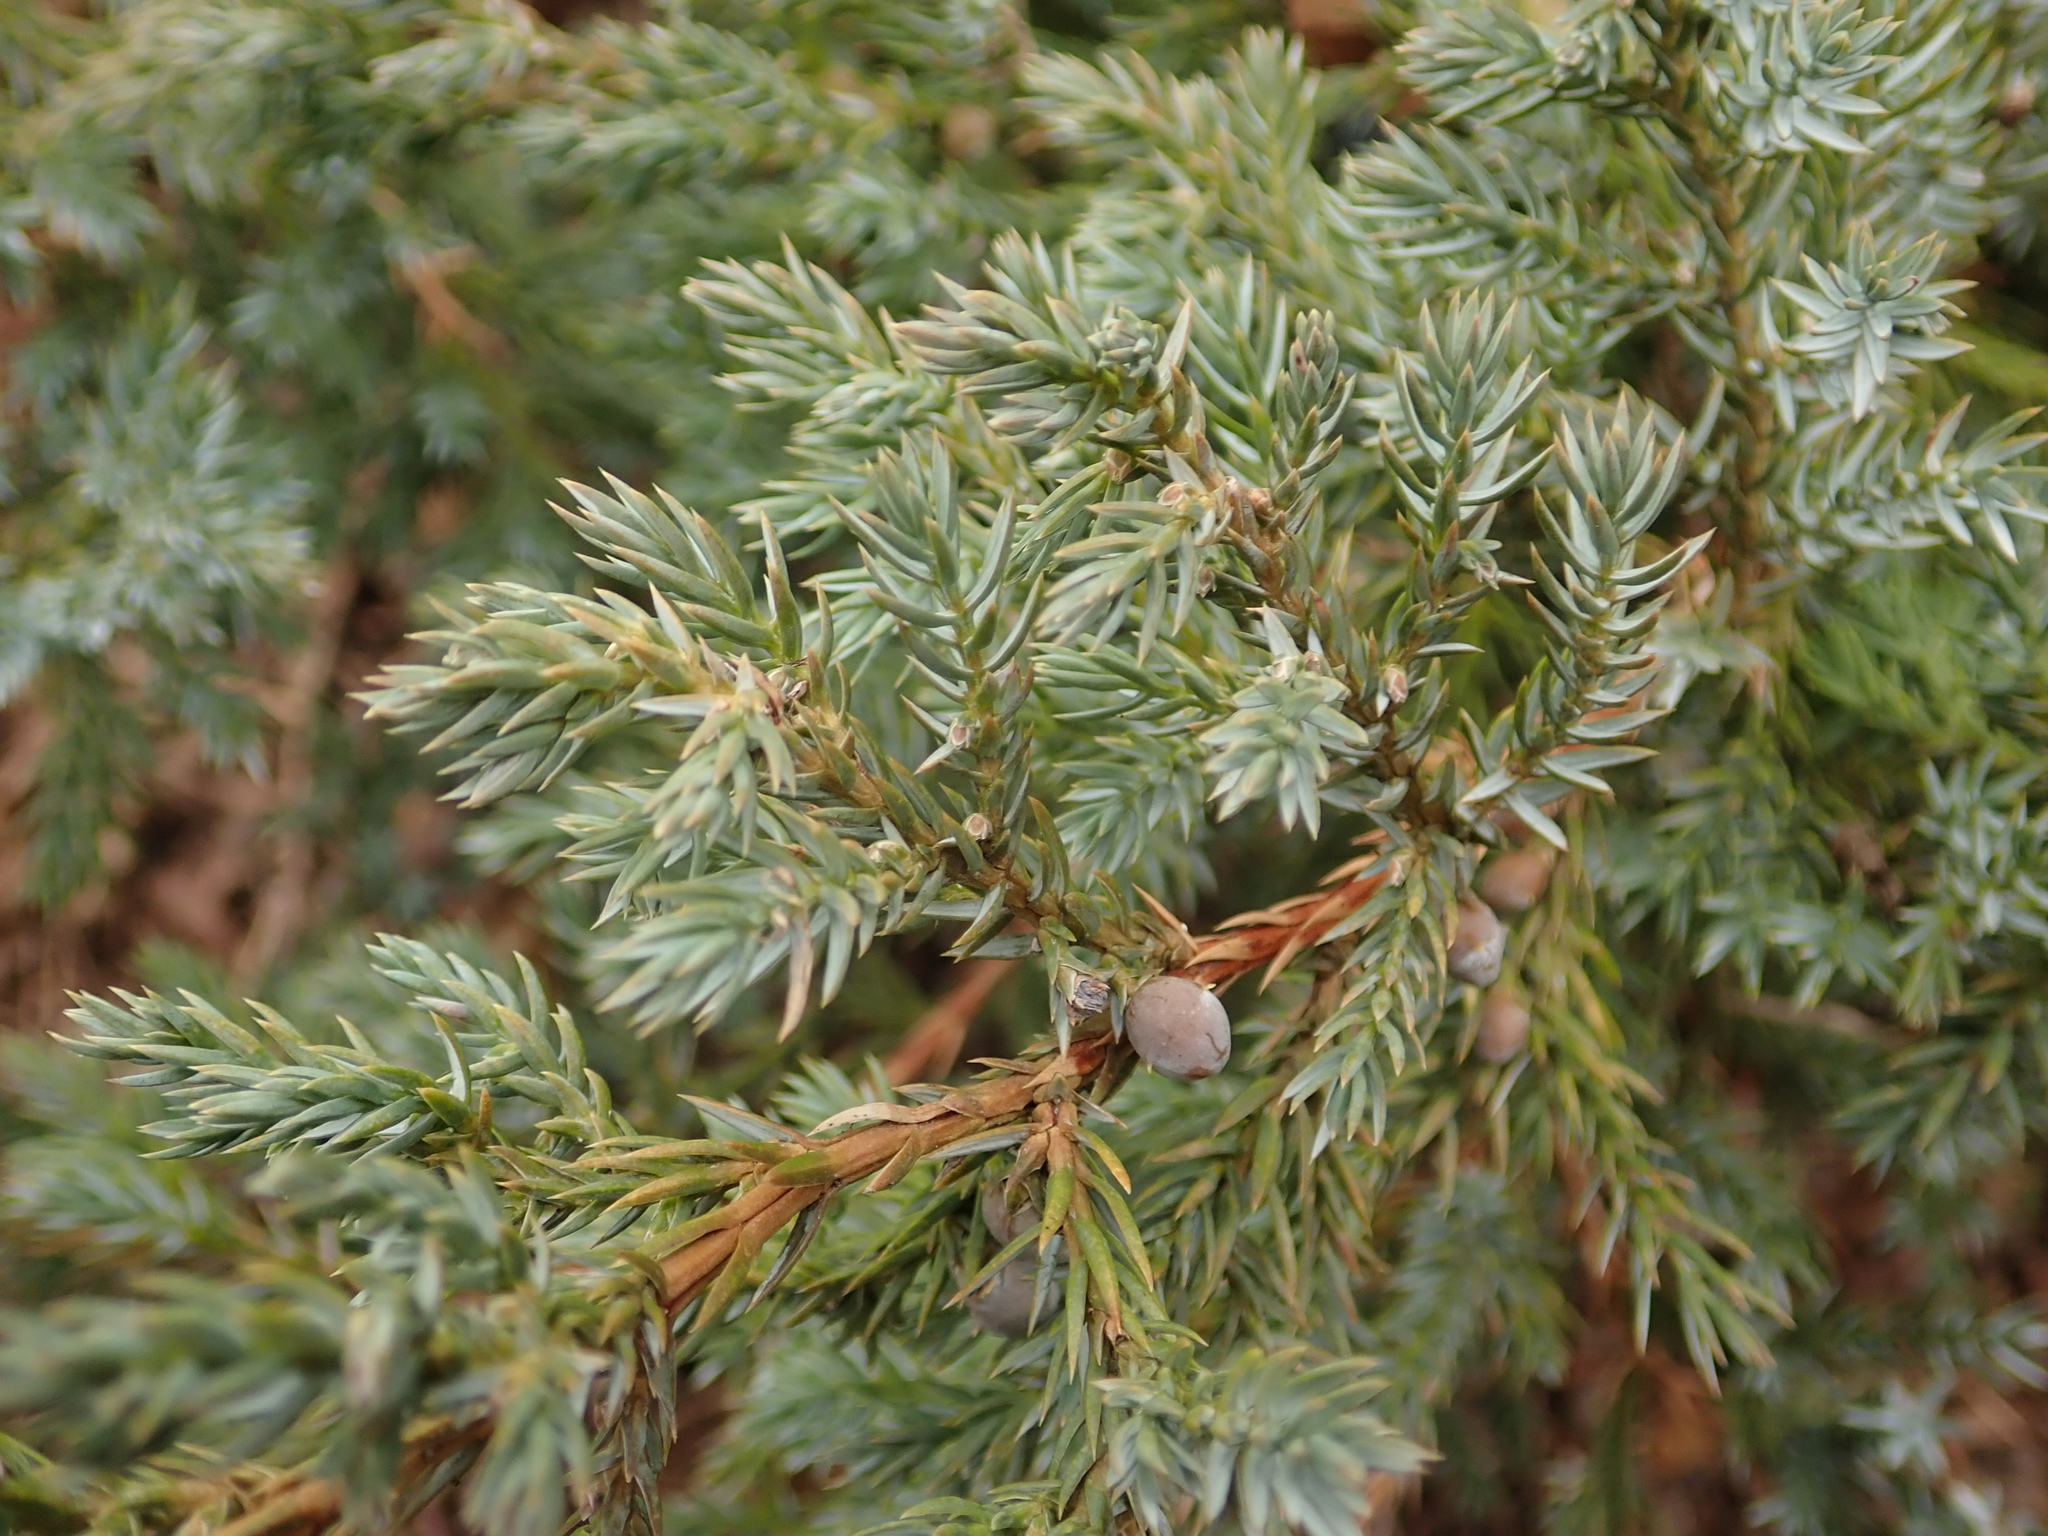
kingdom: Plantae
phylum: Tracheophyta
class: Pinopsida
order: Pinales
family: Cupressaceae
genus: Juniperus
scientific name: Juniperus communis
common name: Common juniper
